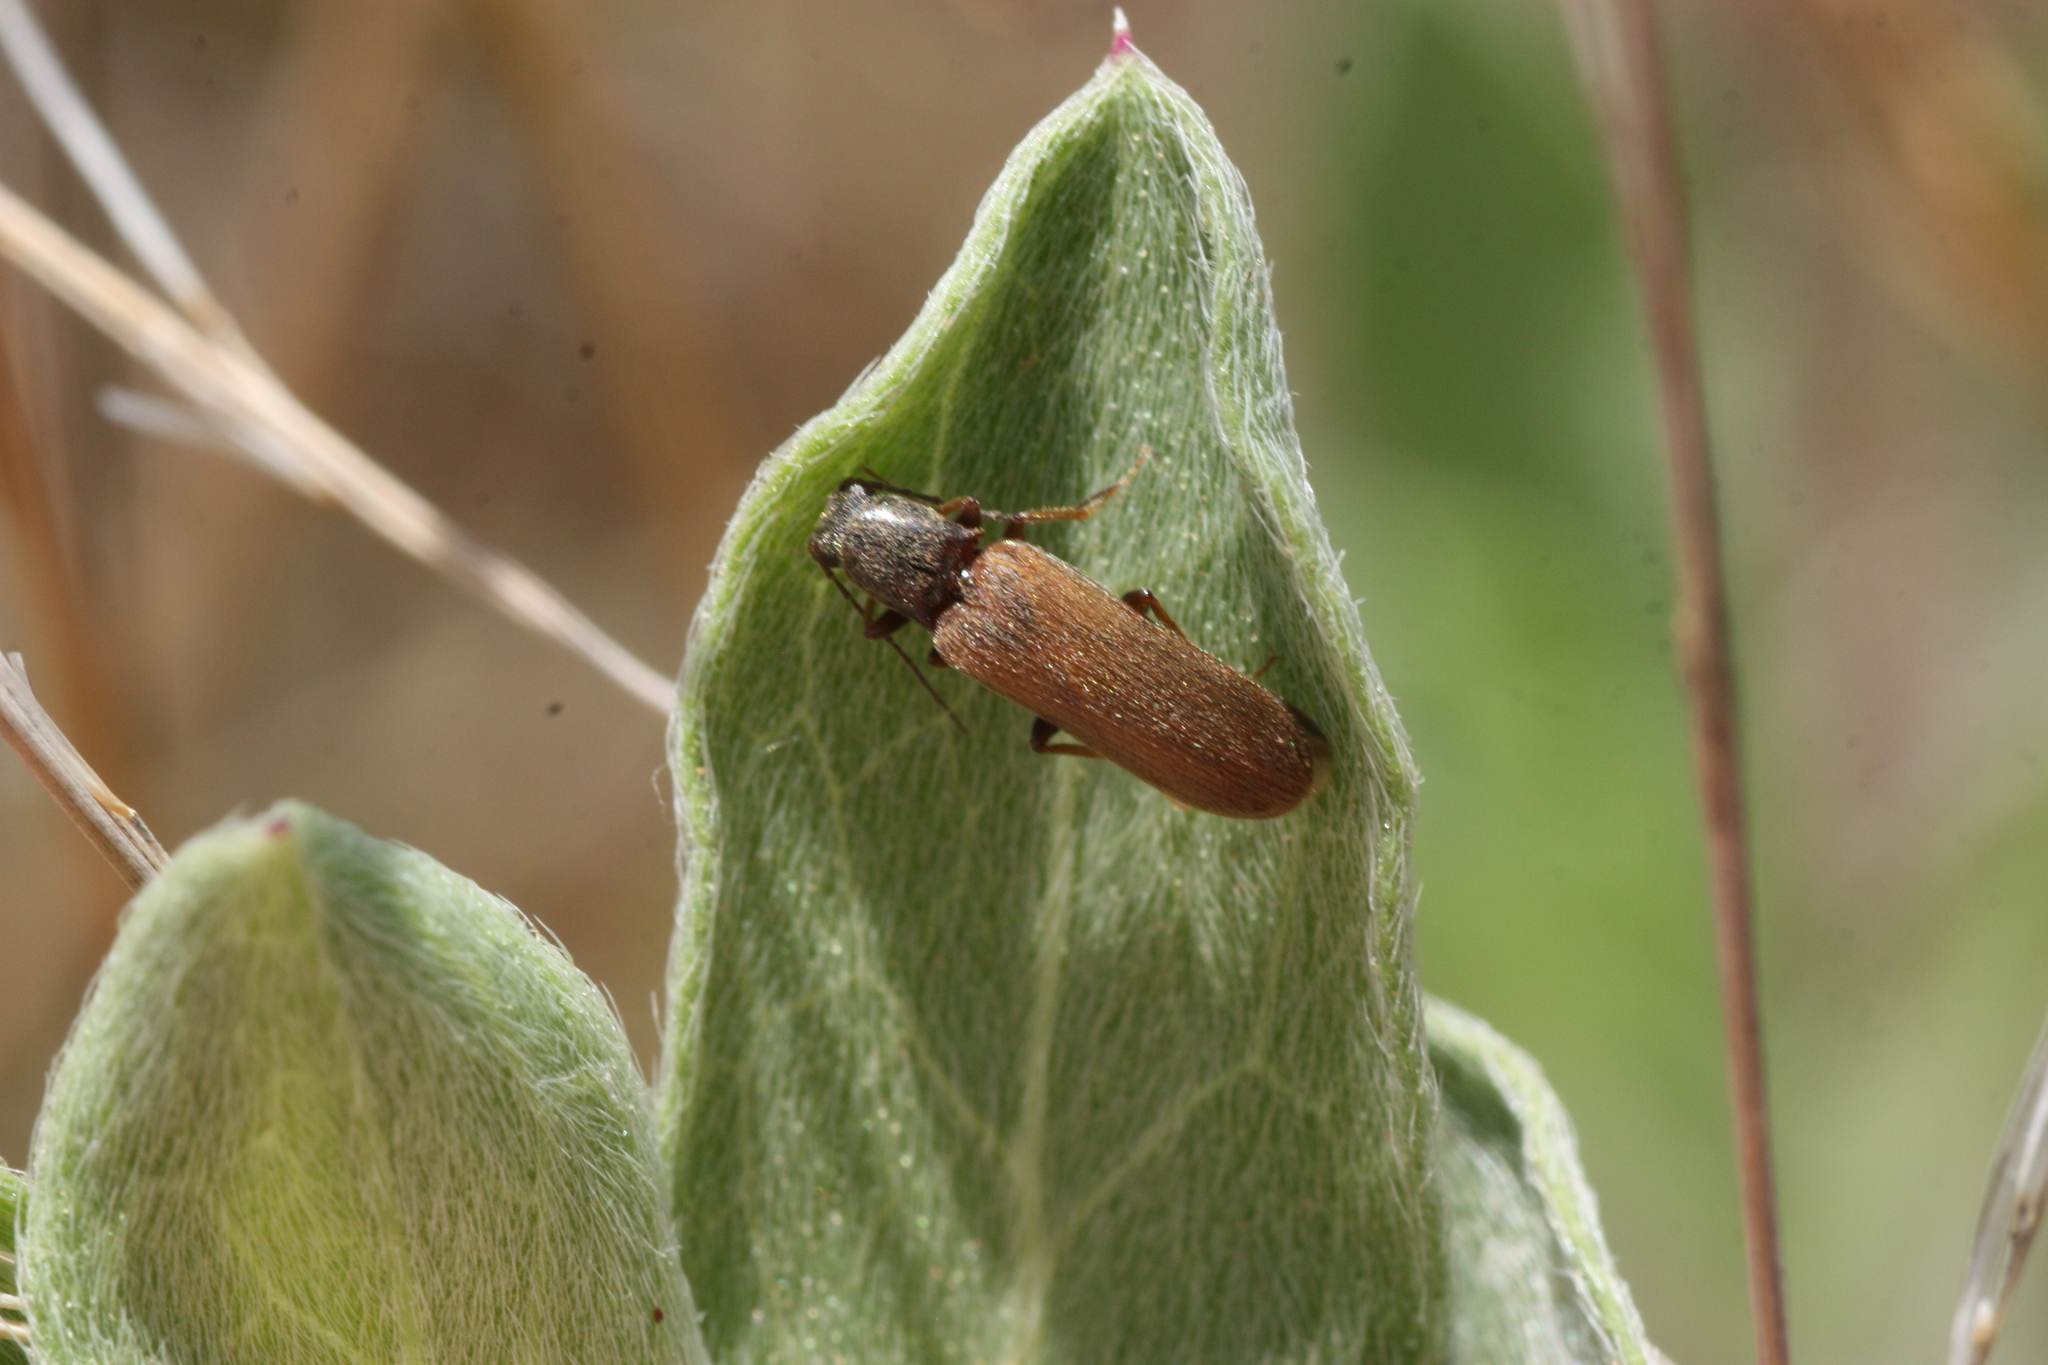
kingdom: Animalia
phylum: Arthropoda
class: Insecta
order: Coleoptera
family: Elateridae
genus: Aphricus
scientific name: Aphricus
